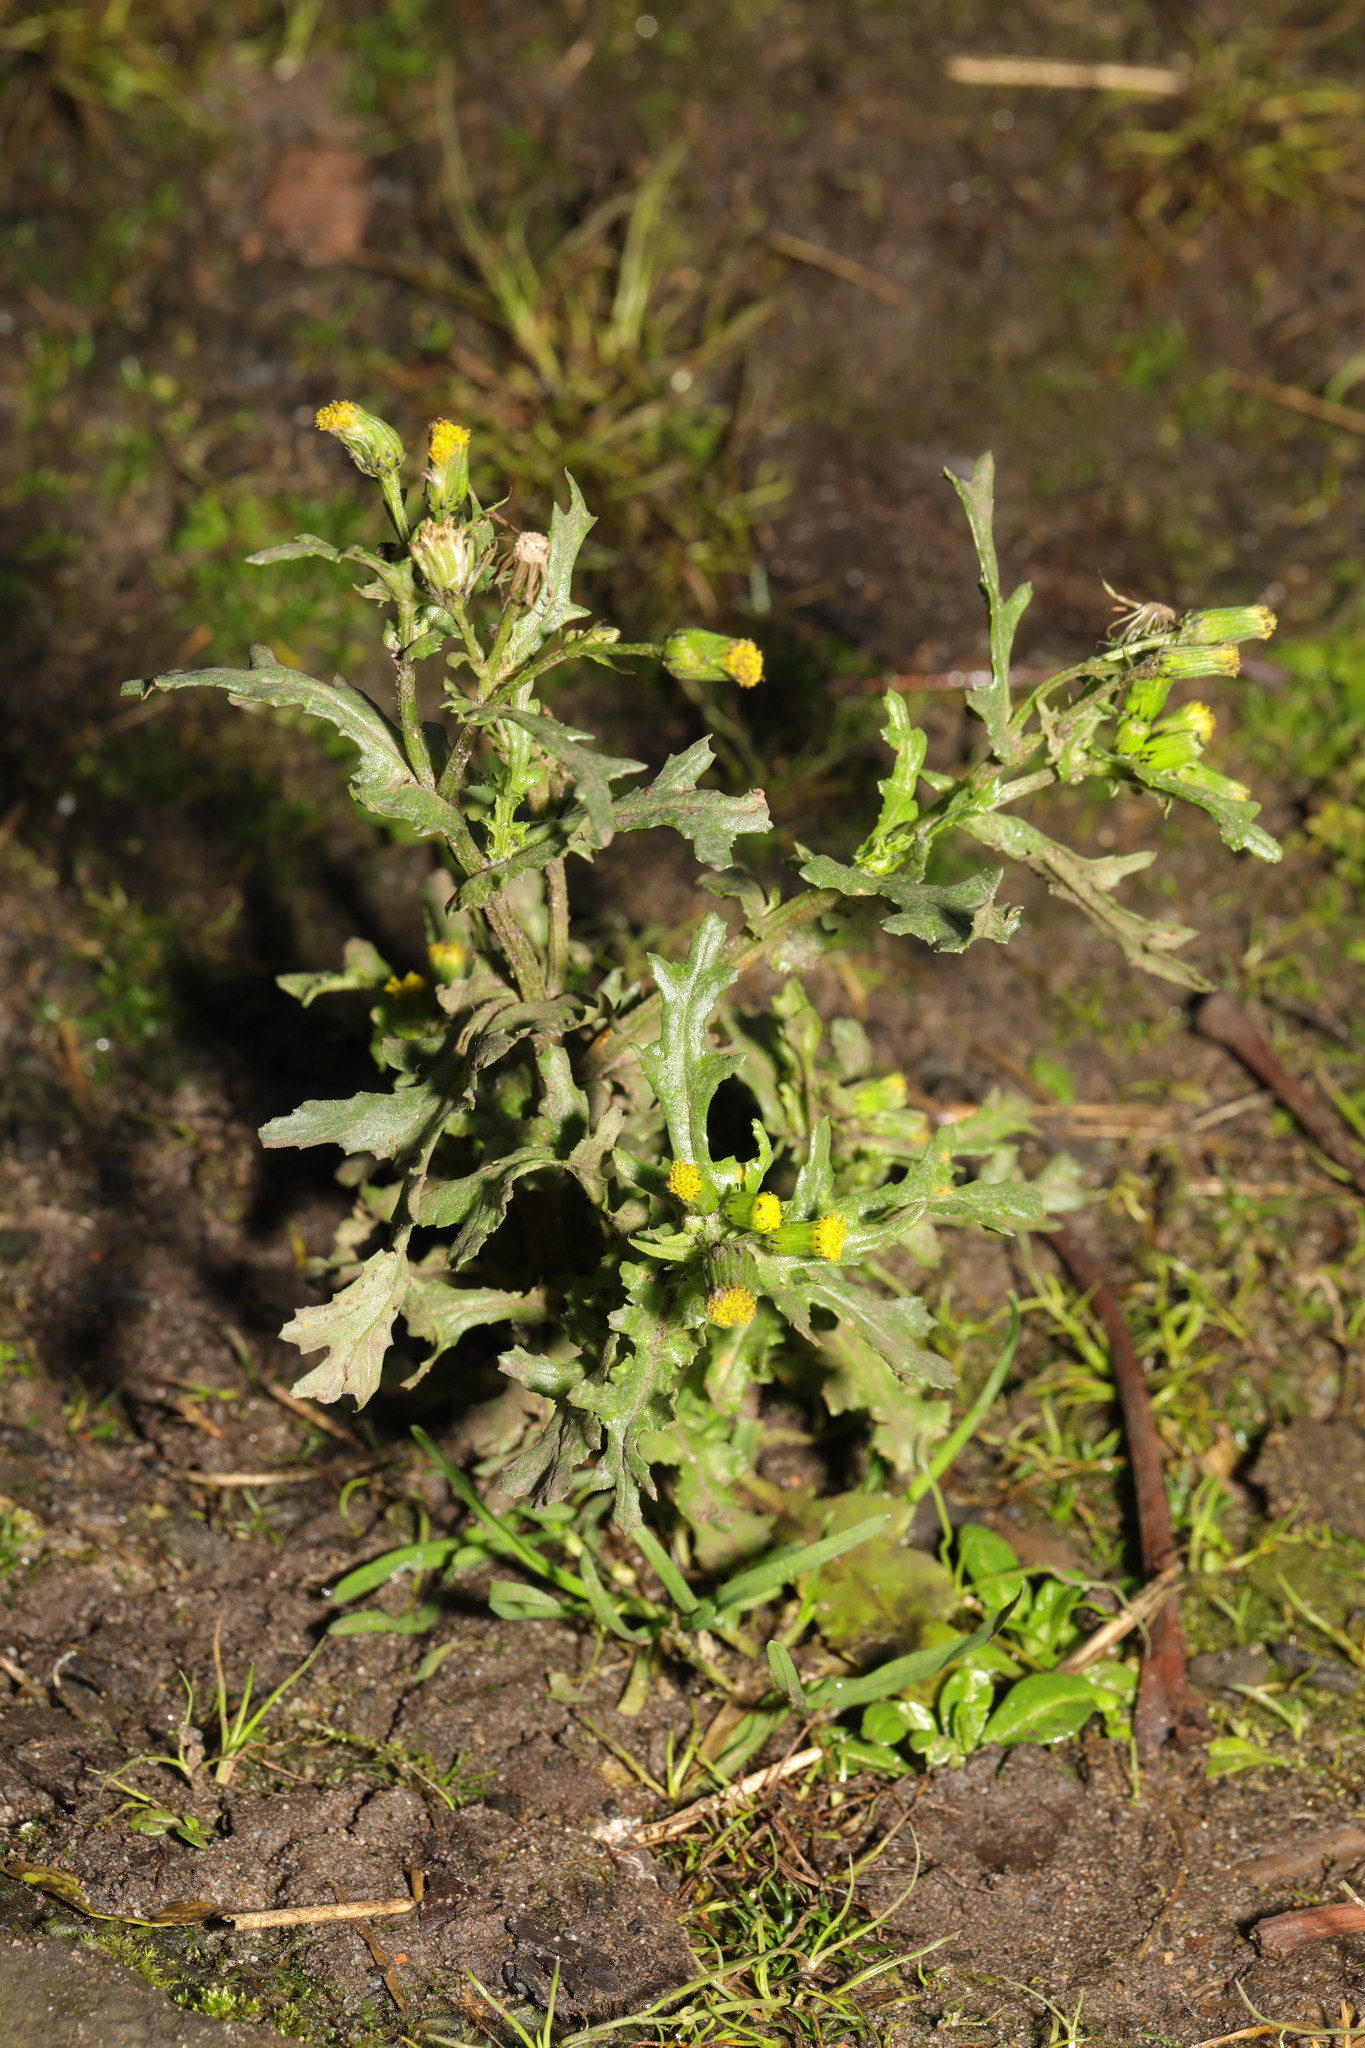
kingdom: Plantae
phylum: Tracheophyta
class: Magnoliopsida
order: Asterales
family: Asteraceae
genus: Senecio
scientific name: Senecio vulgaris
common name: Old-man-in-the-spring
